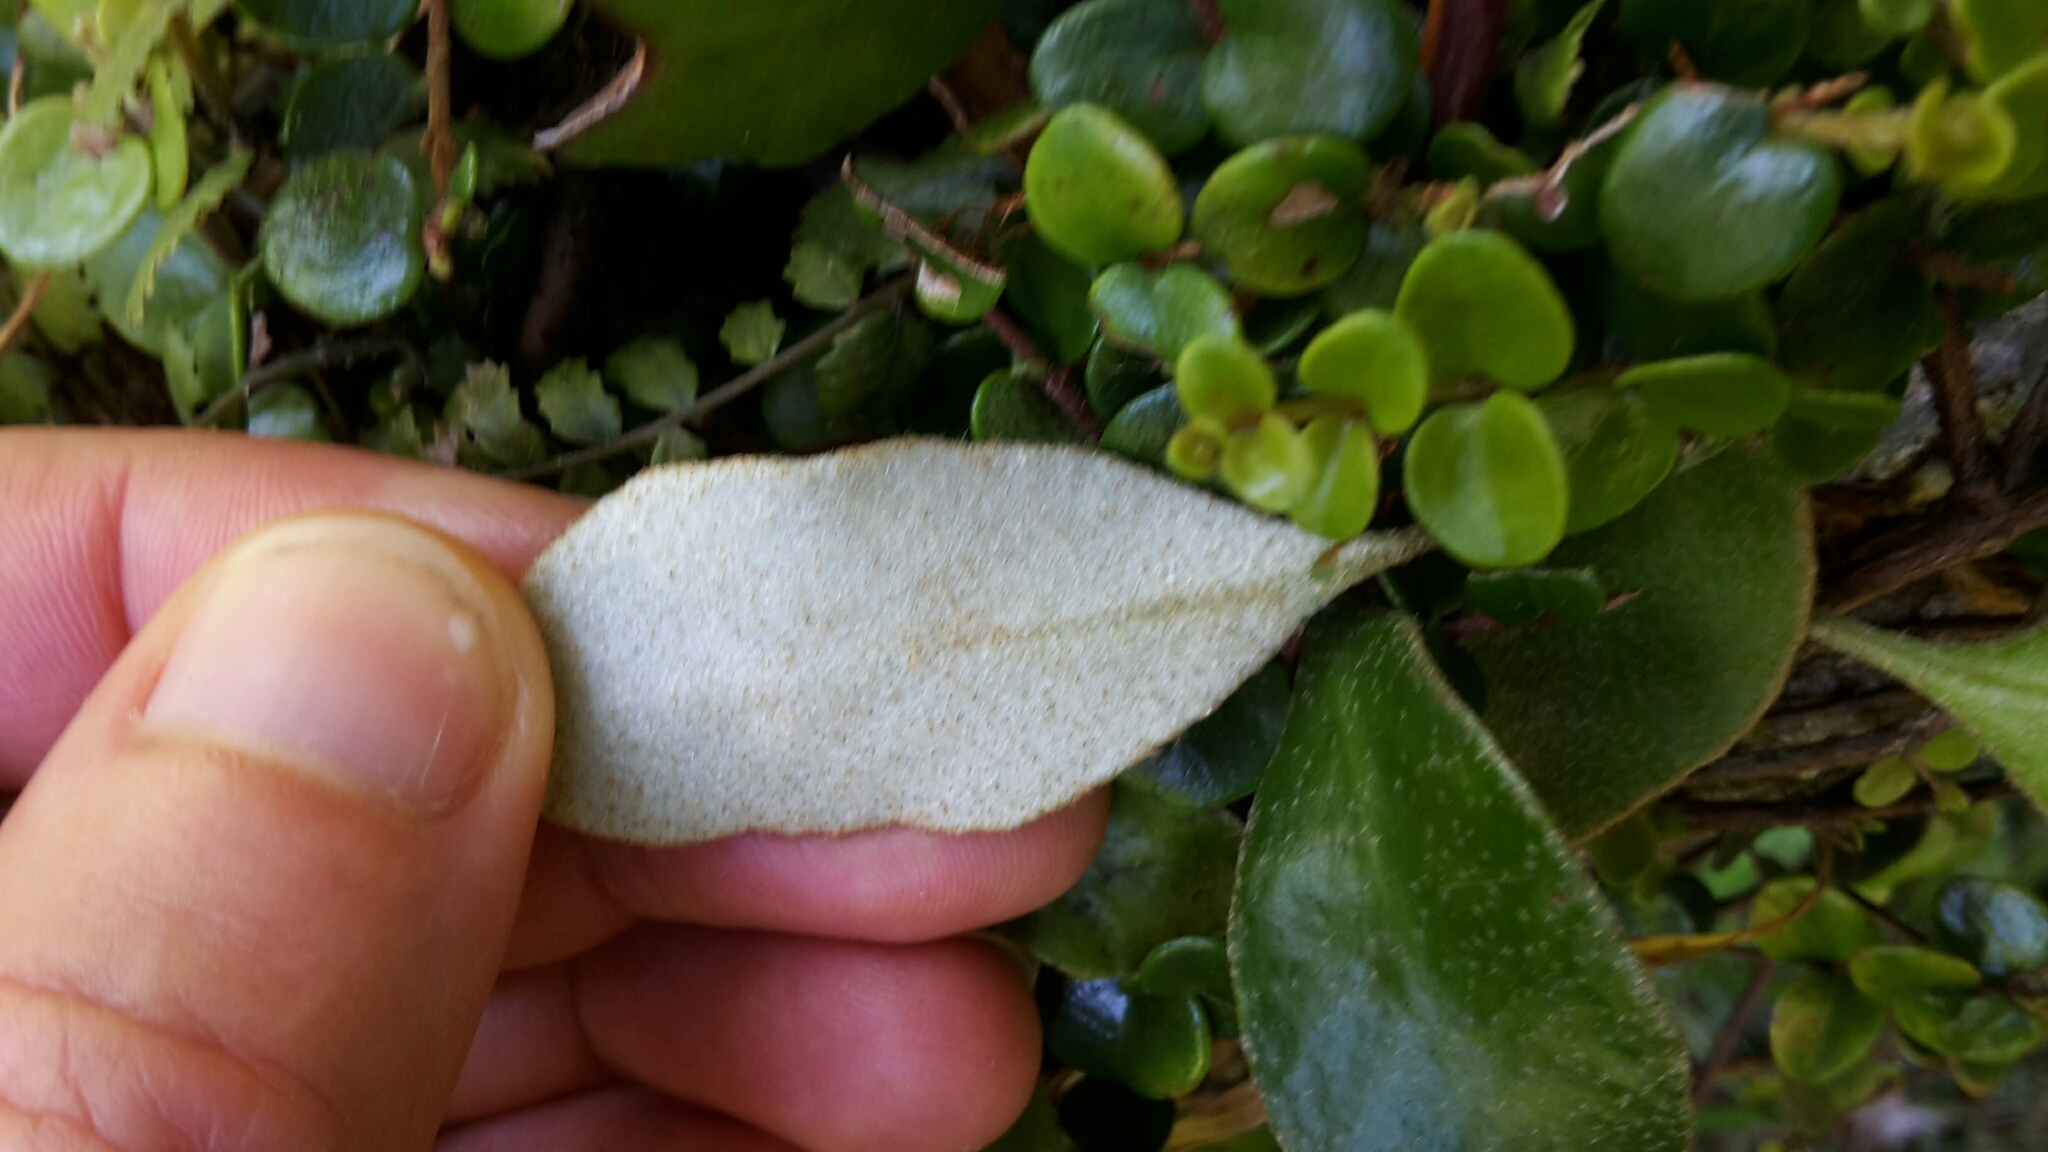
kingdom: Plantae
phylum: Tracheophyta
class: Polypodiopsida
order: Polypodiales
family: Polypodiaceae
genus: Pyrrosia
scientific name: Pyrrosia eleagnifolia
